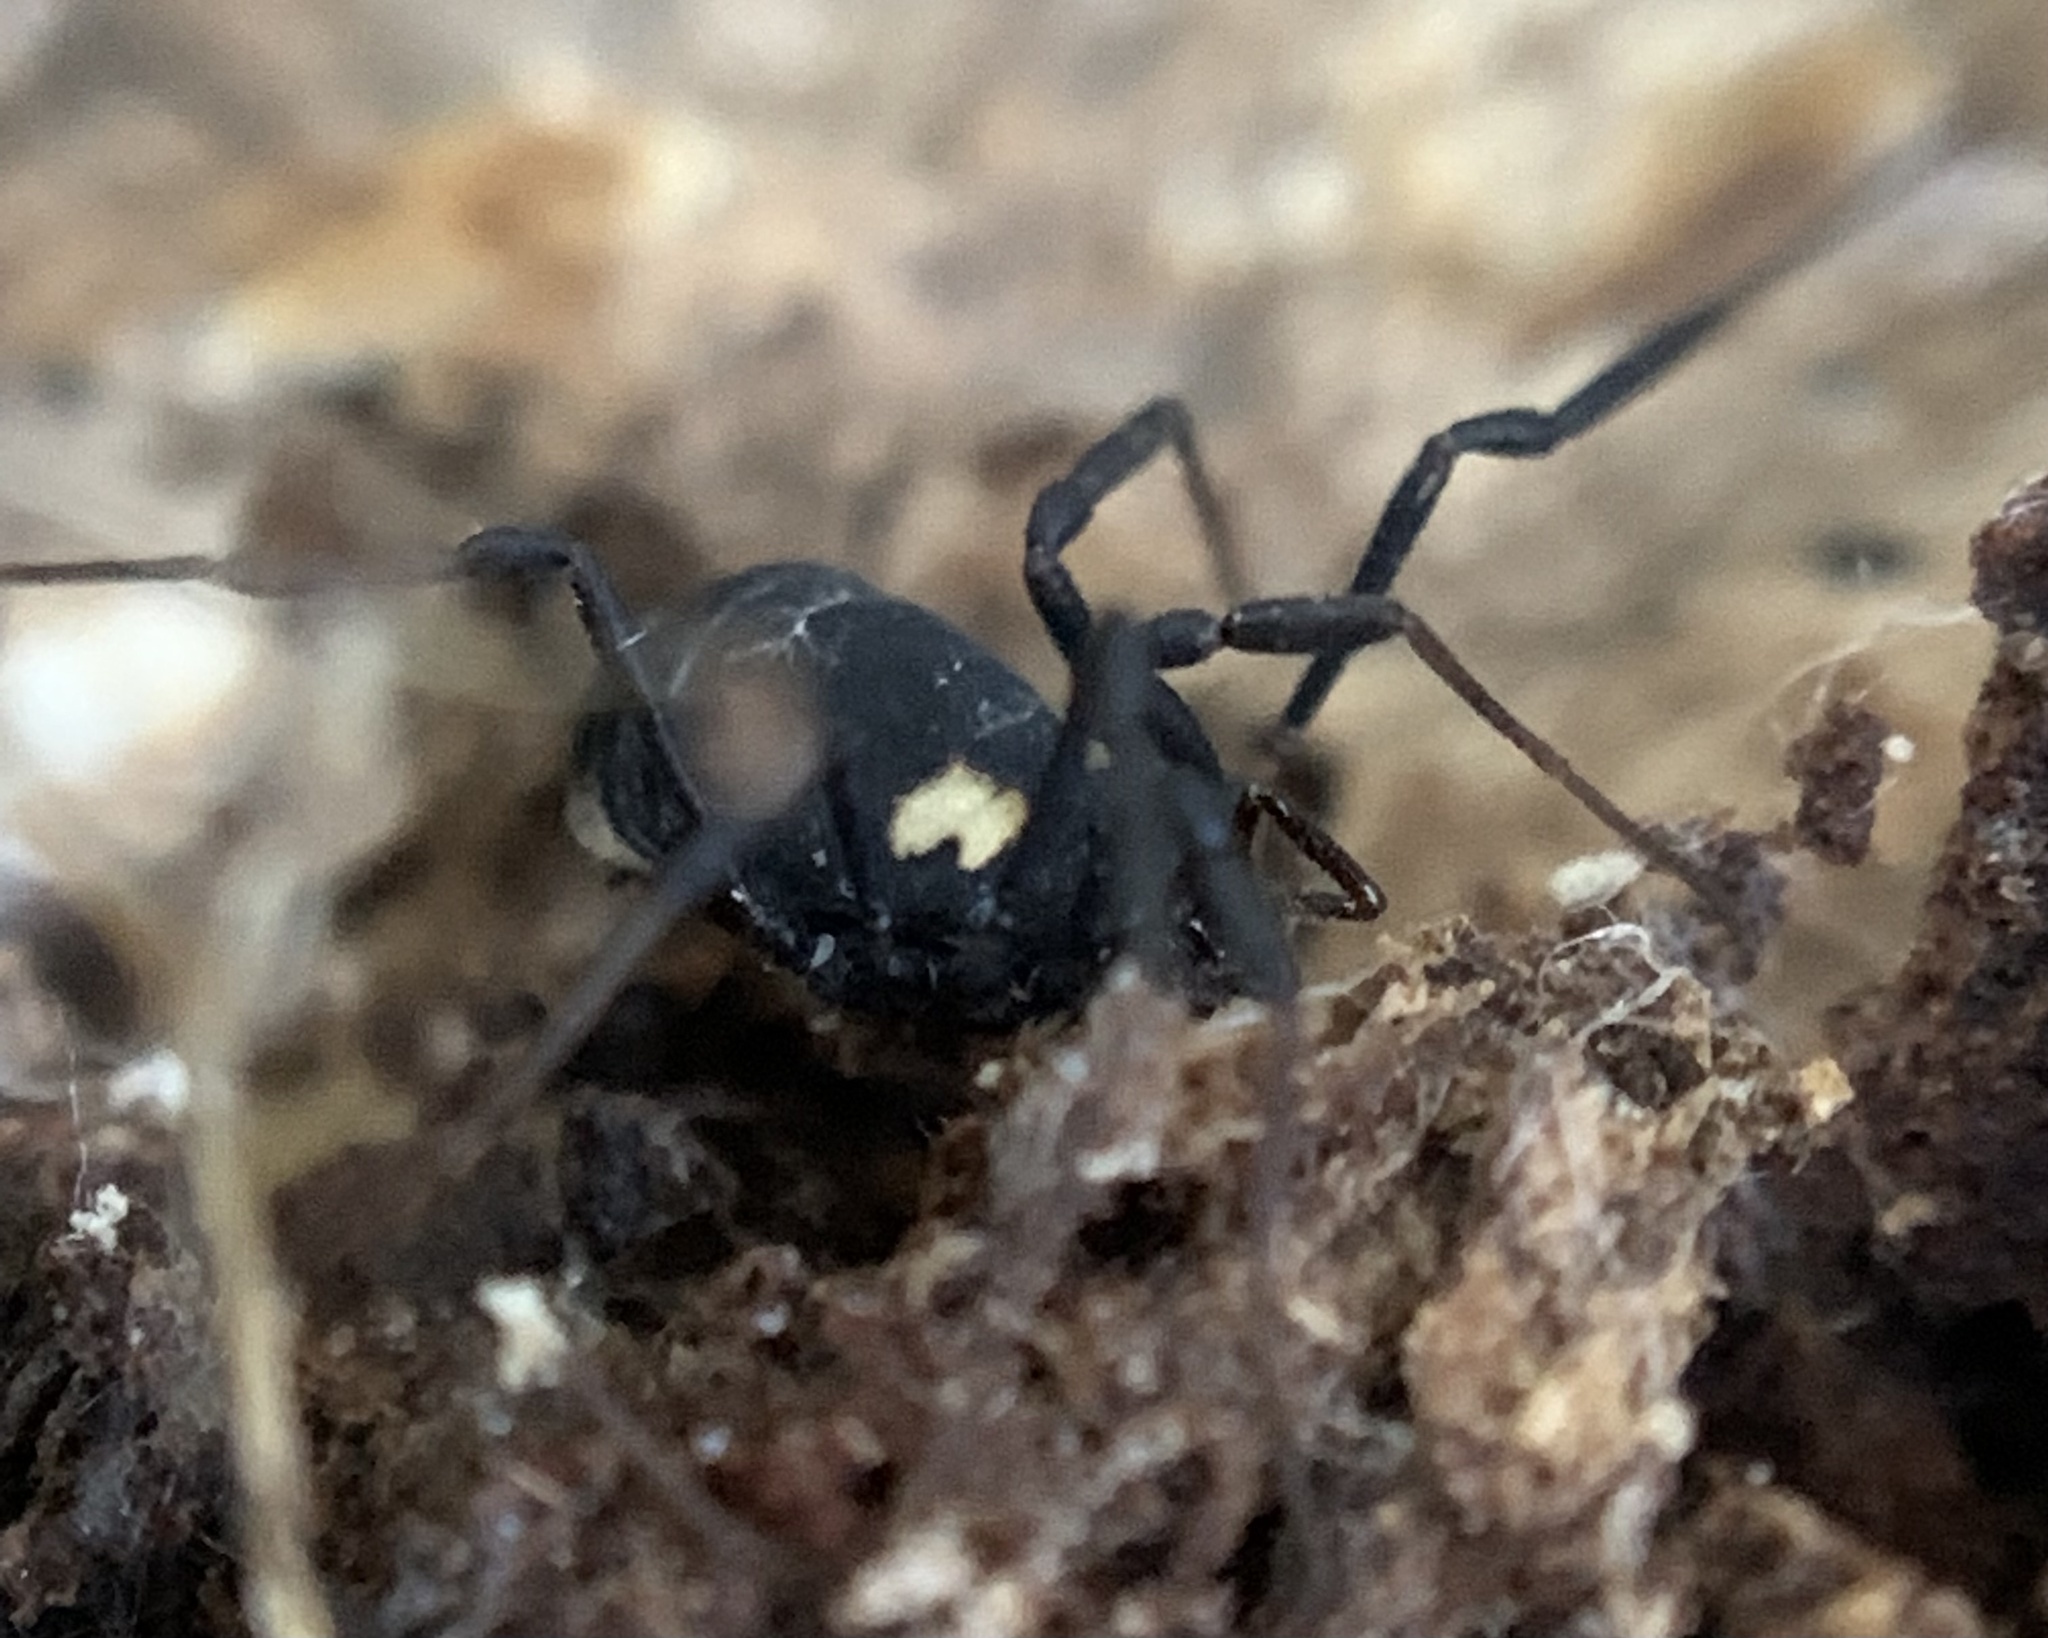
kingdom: Animalia
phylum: Arthropoda
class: Arachnida
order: Opiliones
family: Nemastomatidae
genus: Nemastoma
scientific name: Nemastoma bimaculatum
